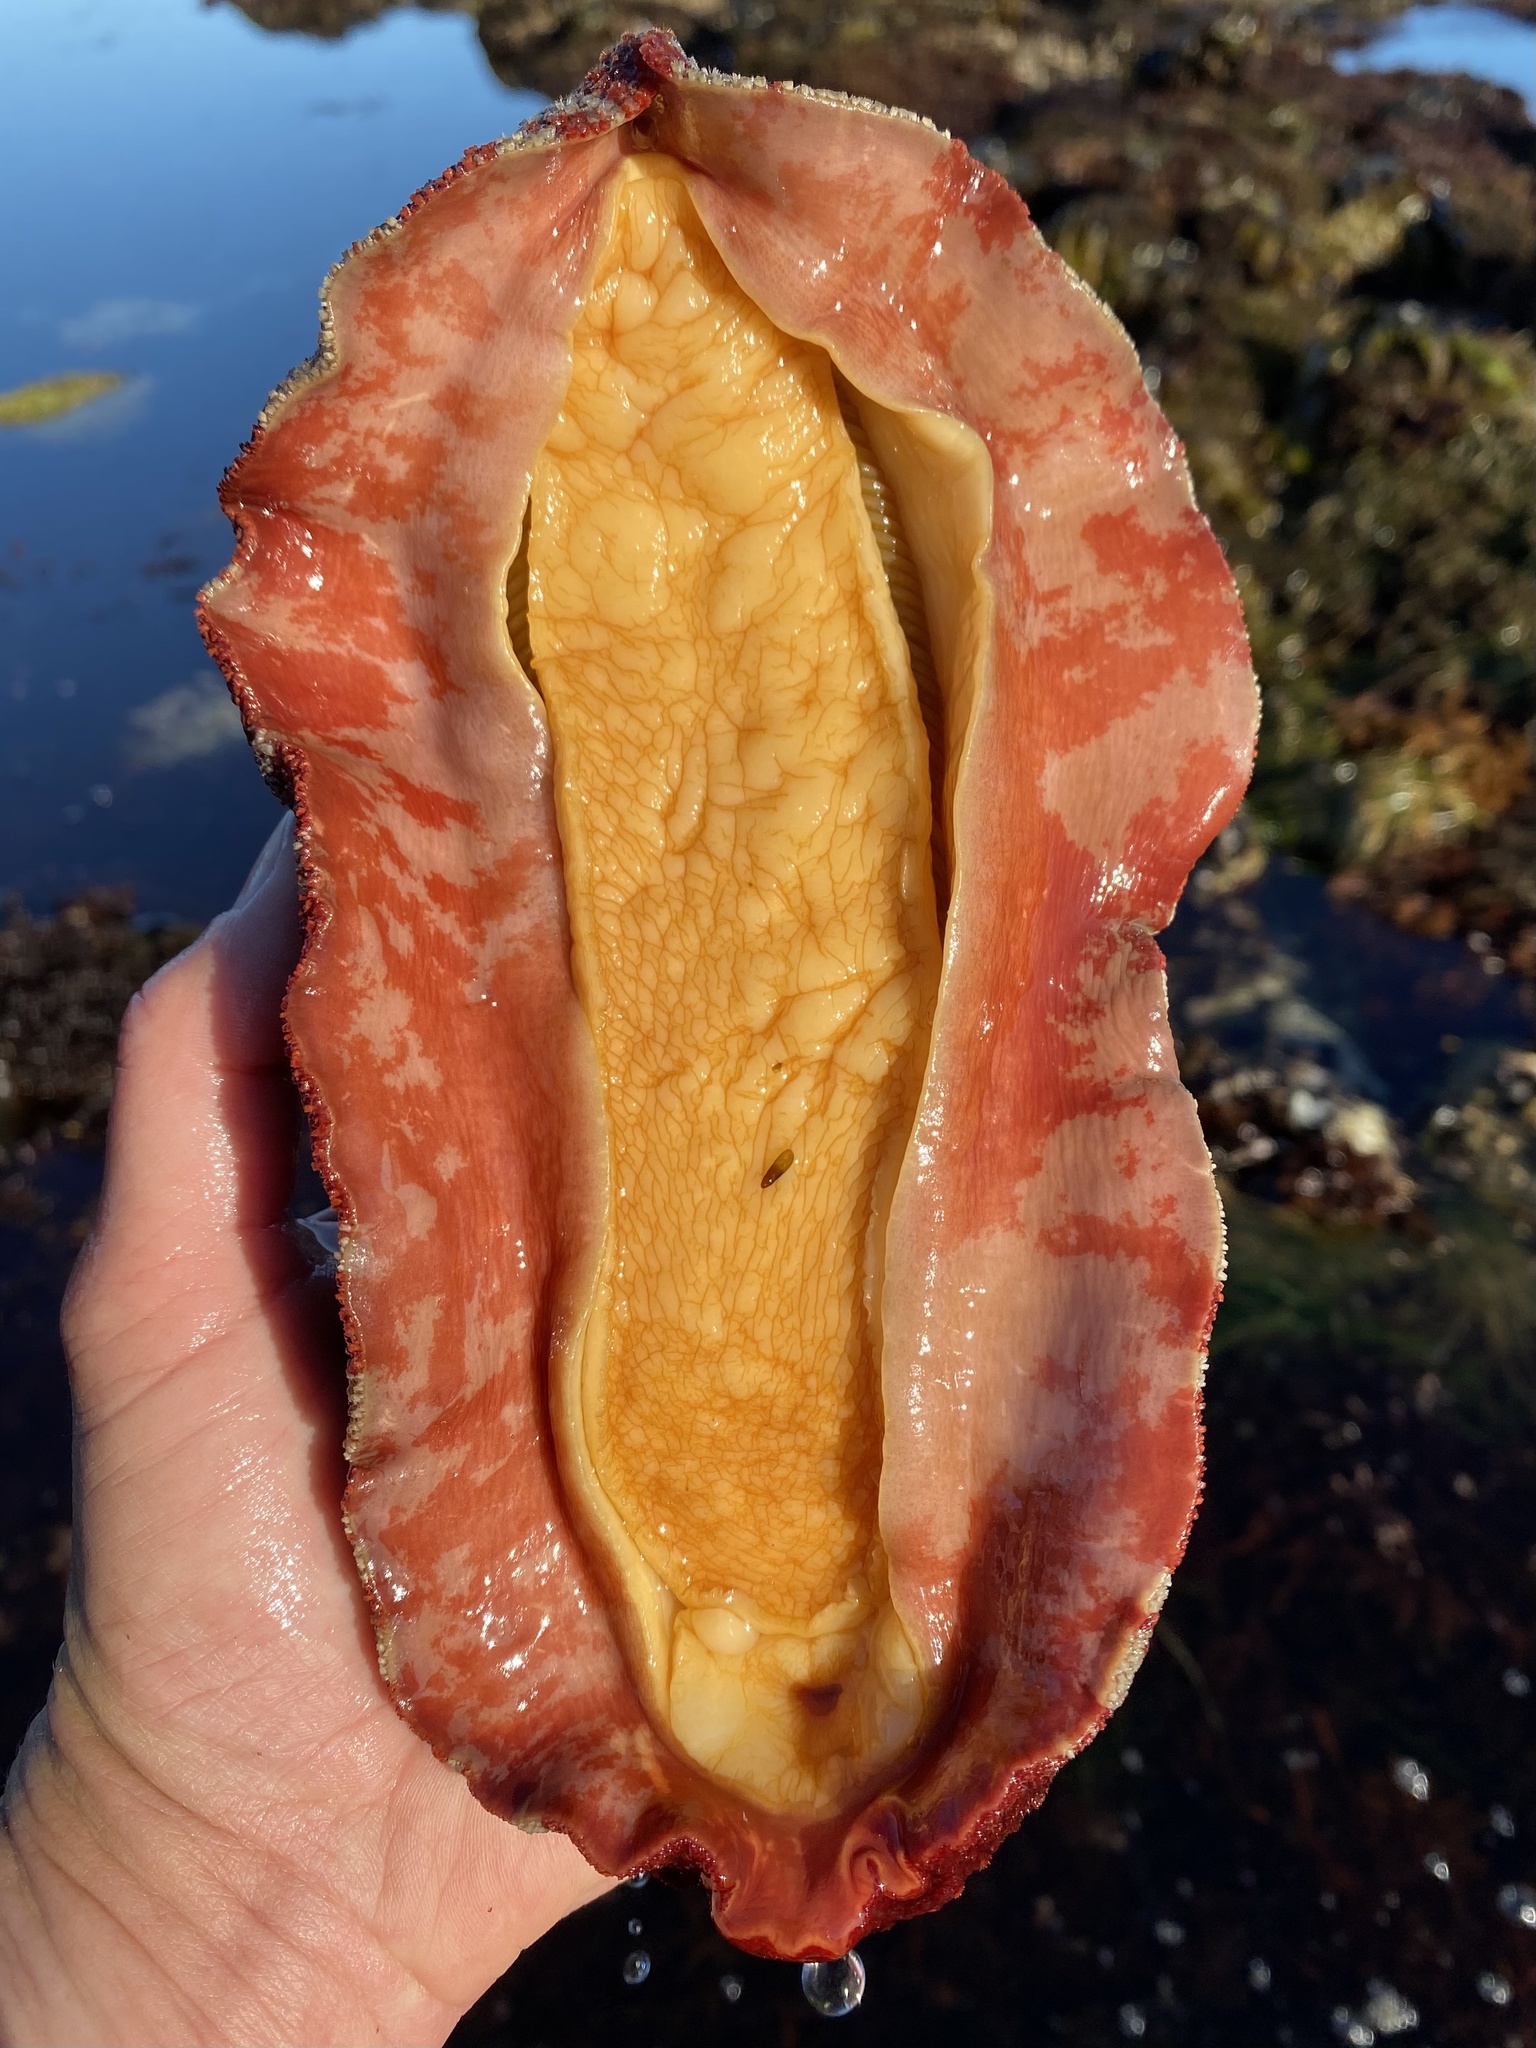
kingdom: Animalia
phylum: Mollusca
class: Polyplacophora
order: Chitonida
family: Acanthochitonidae
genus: Cryptochiton
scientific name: Cryptochiton stelleri
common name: Giant pacific chiton
